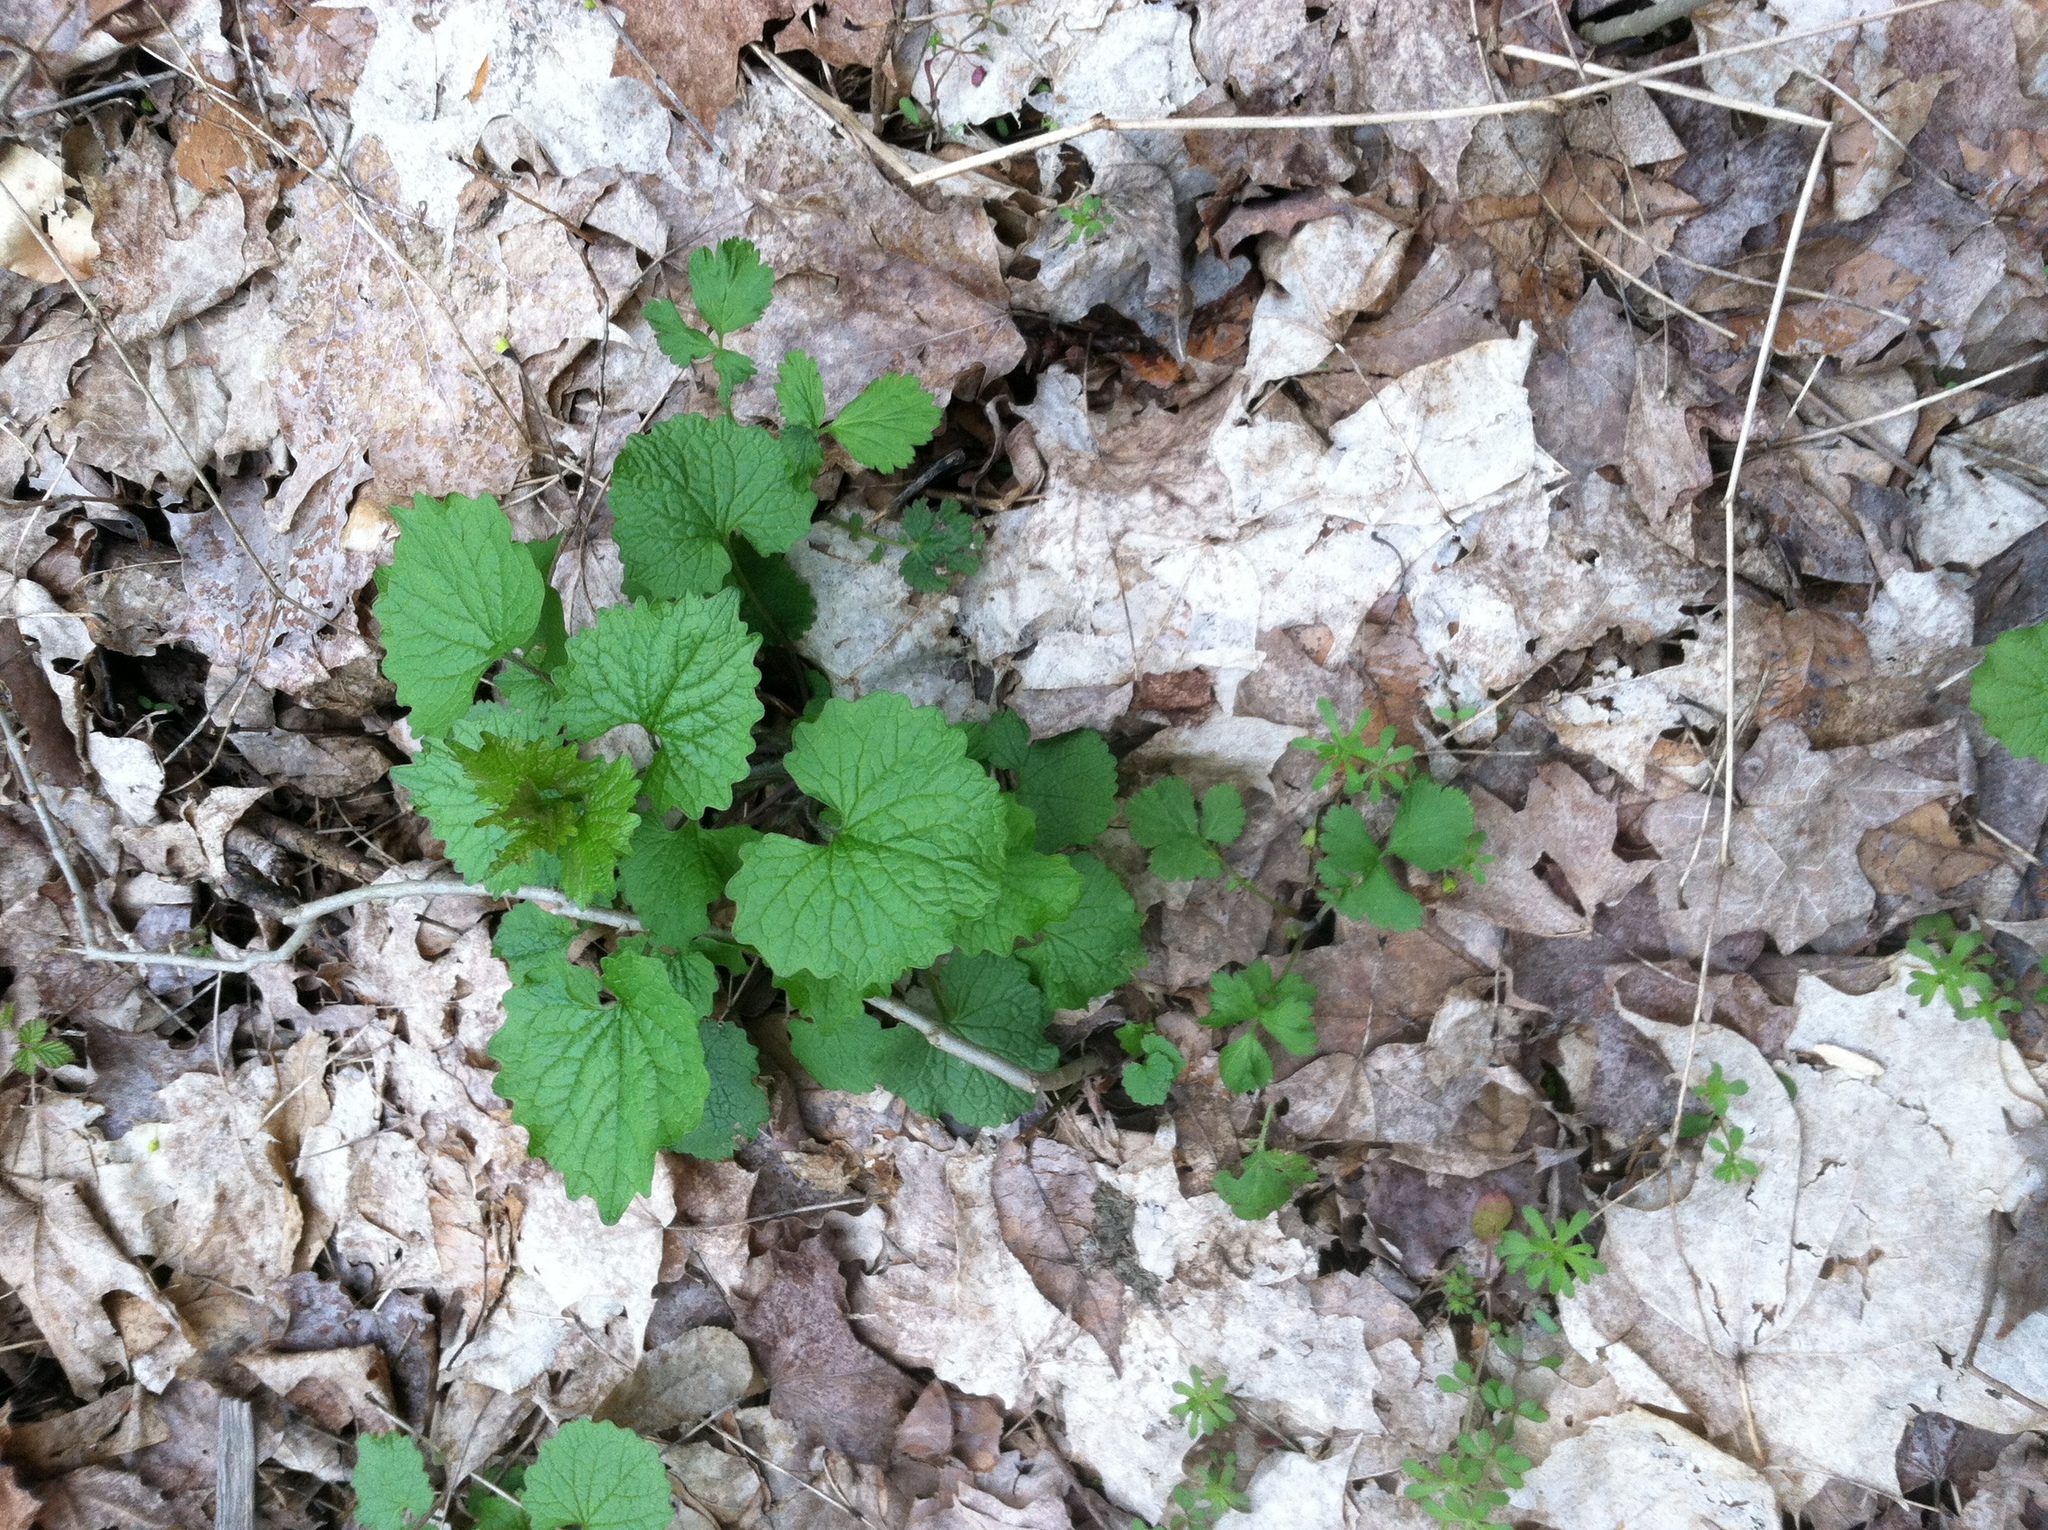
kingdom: Plantae
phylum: Tracheophyta
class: Magnoliopsida
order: Brassicales
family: Brassicaceae
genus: Alliaria
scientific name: Alliaria petiolata
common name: Garlic mustard
